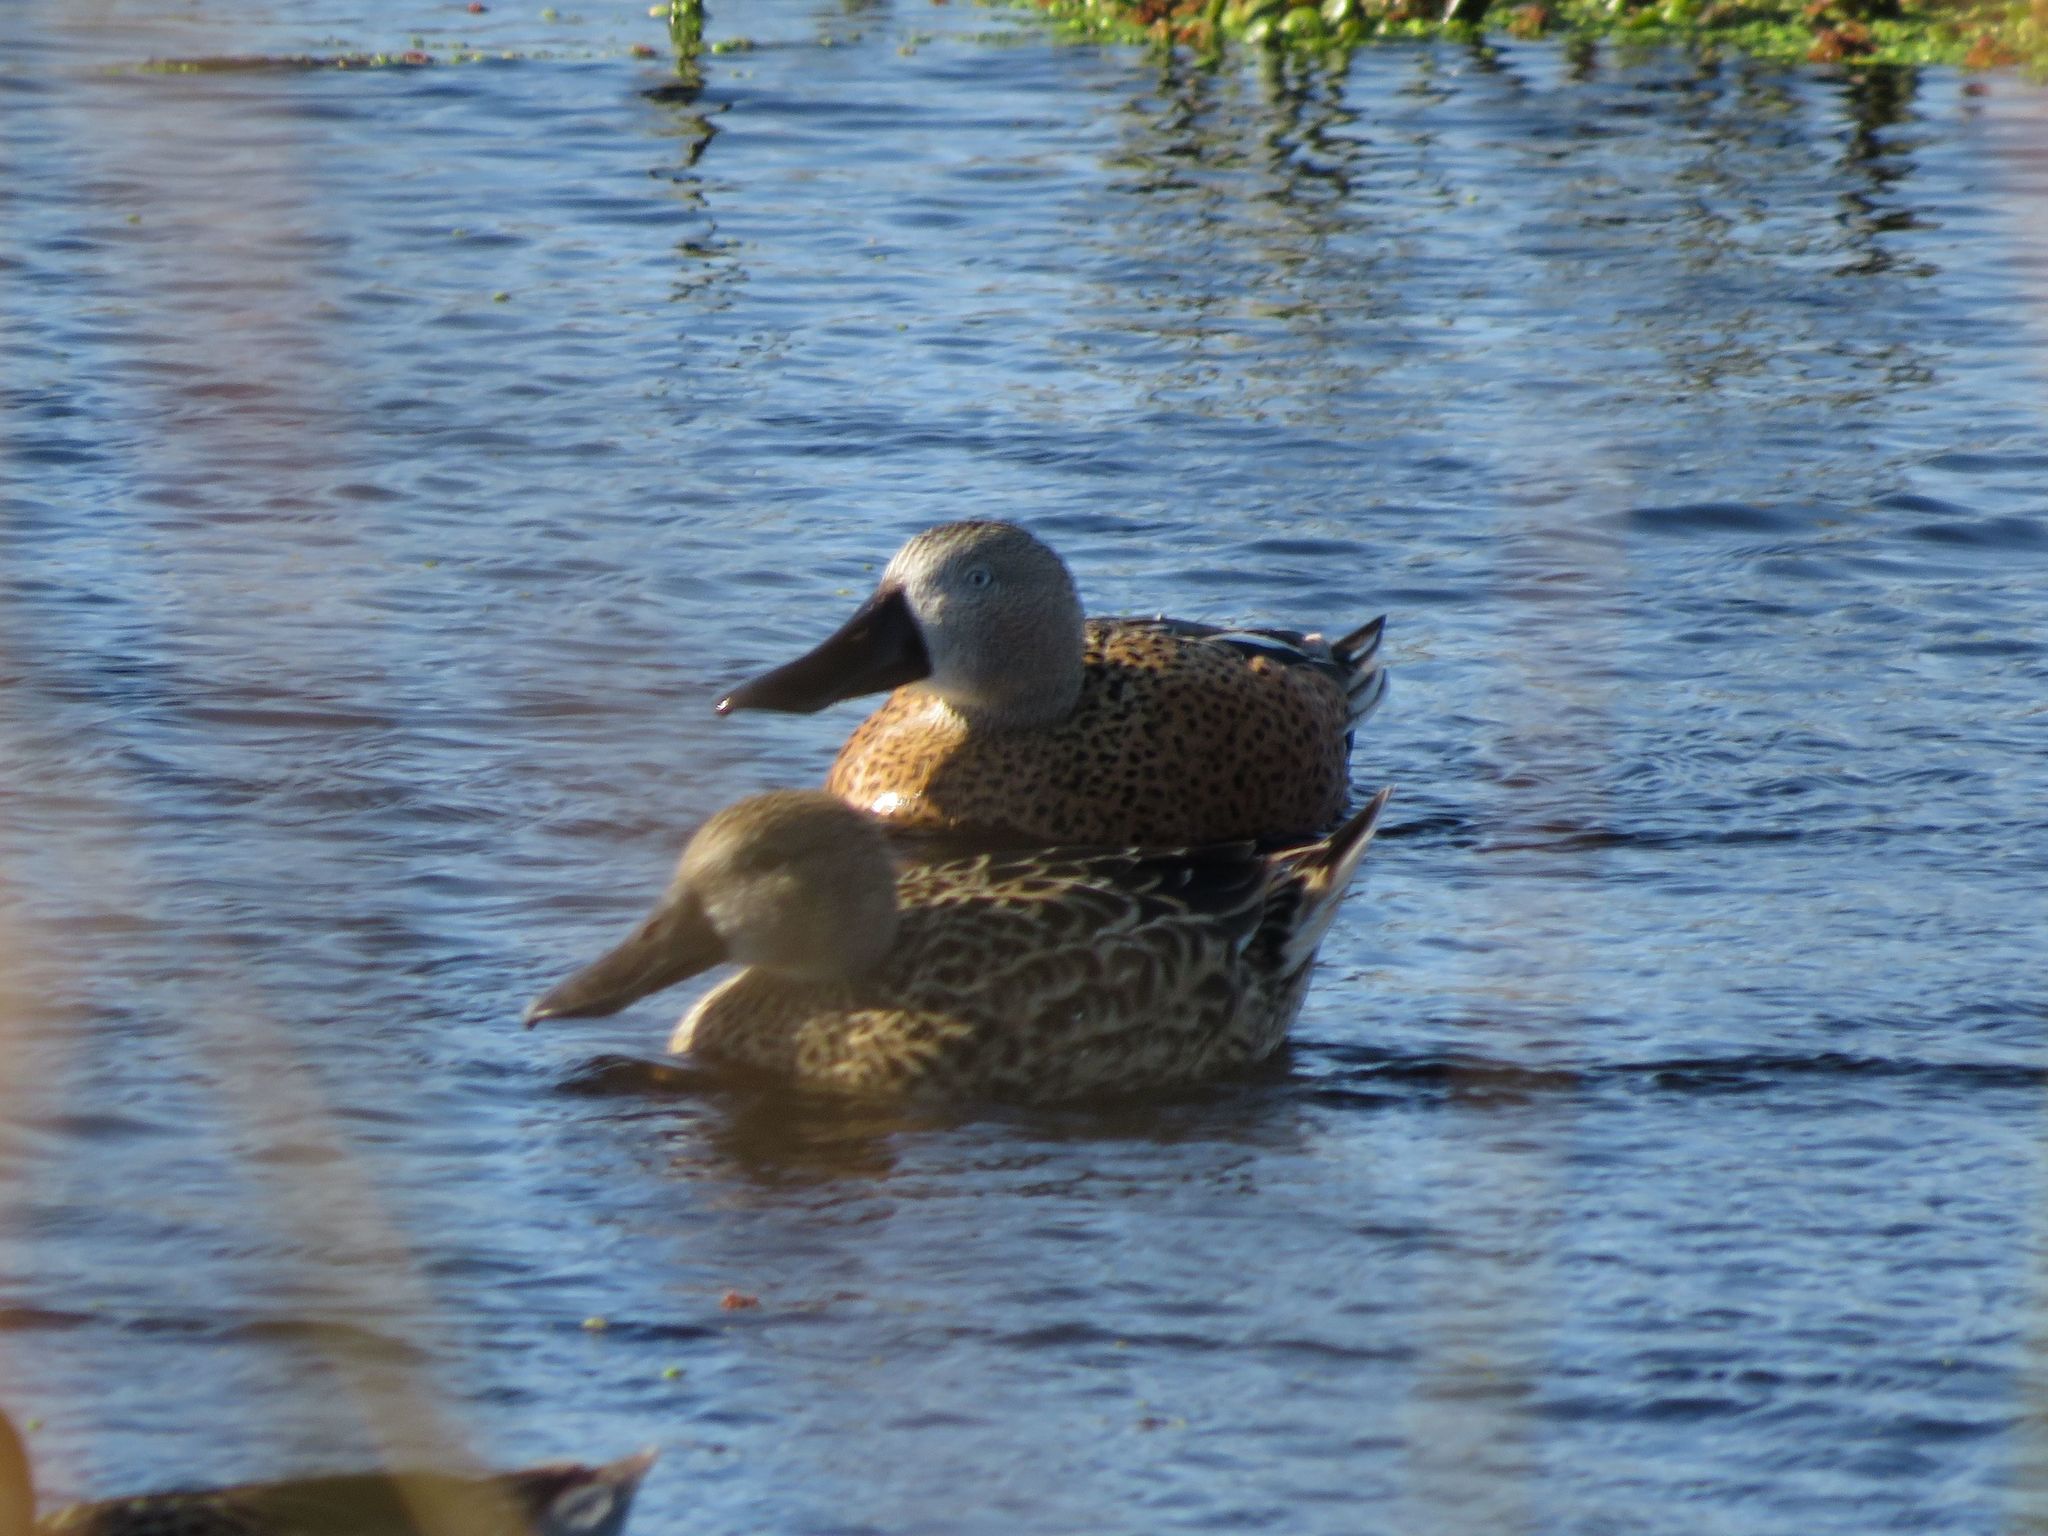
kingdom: Animalia
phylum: Chordata
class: Aves
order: Anseriformes
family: Anatidae
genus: Spatula
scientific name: Spatula platalea
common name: Red shoveler
